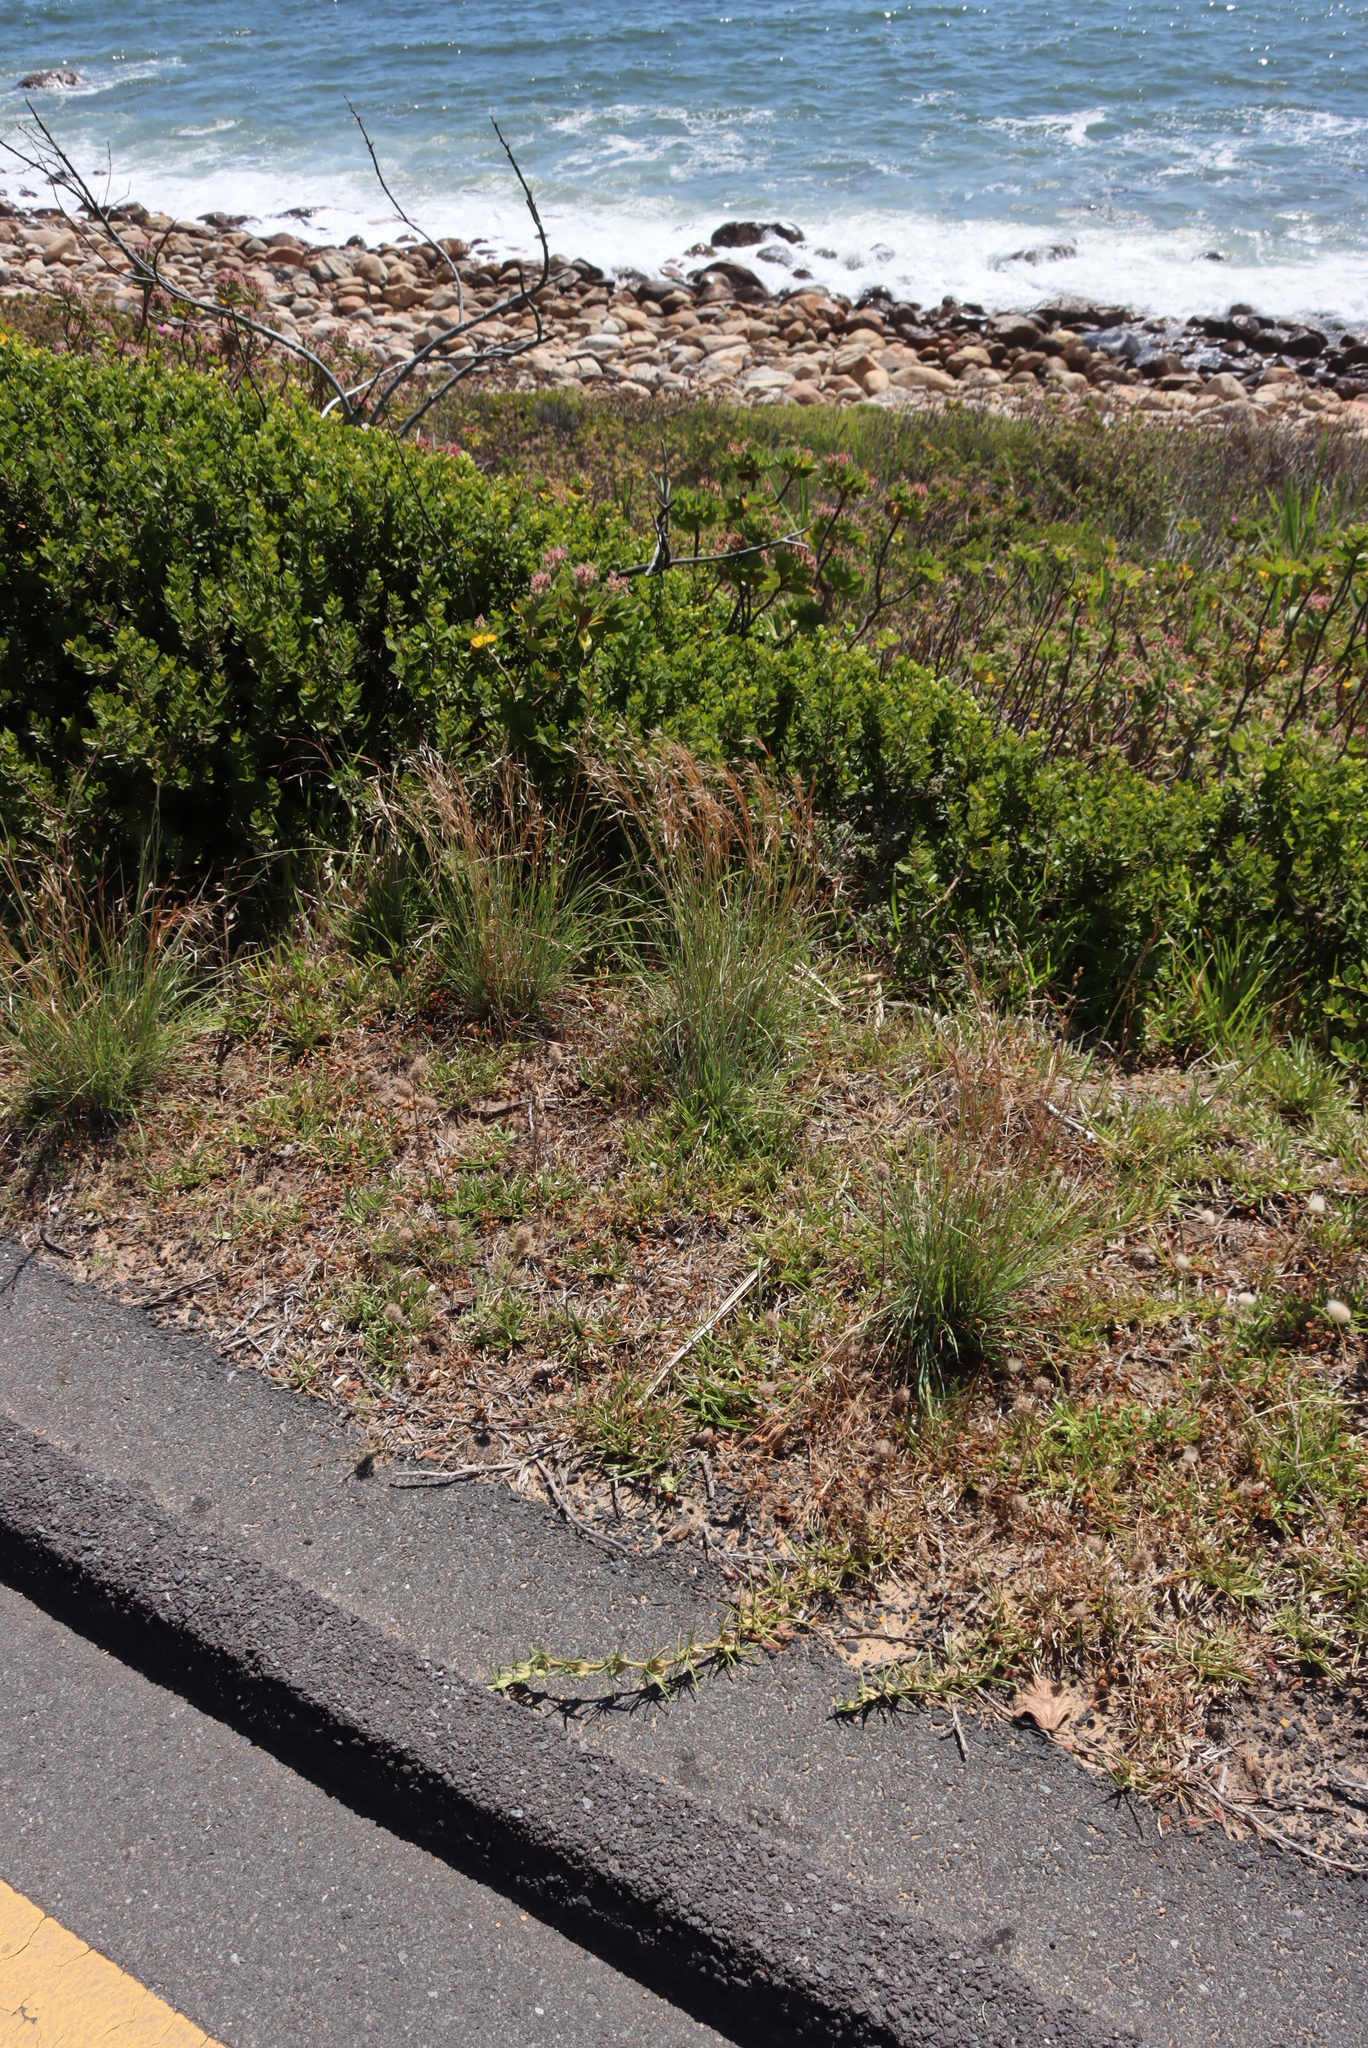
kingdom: Plantae
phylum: Tracheophyta
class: Liliopsida
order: Poales
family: Poaceae
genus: Stenotaphrum
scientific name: Stenotaphrum secundatum
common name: St. augustine grass
